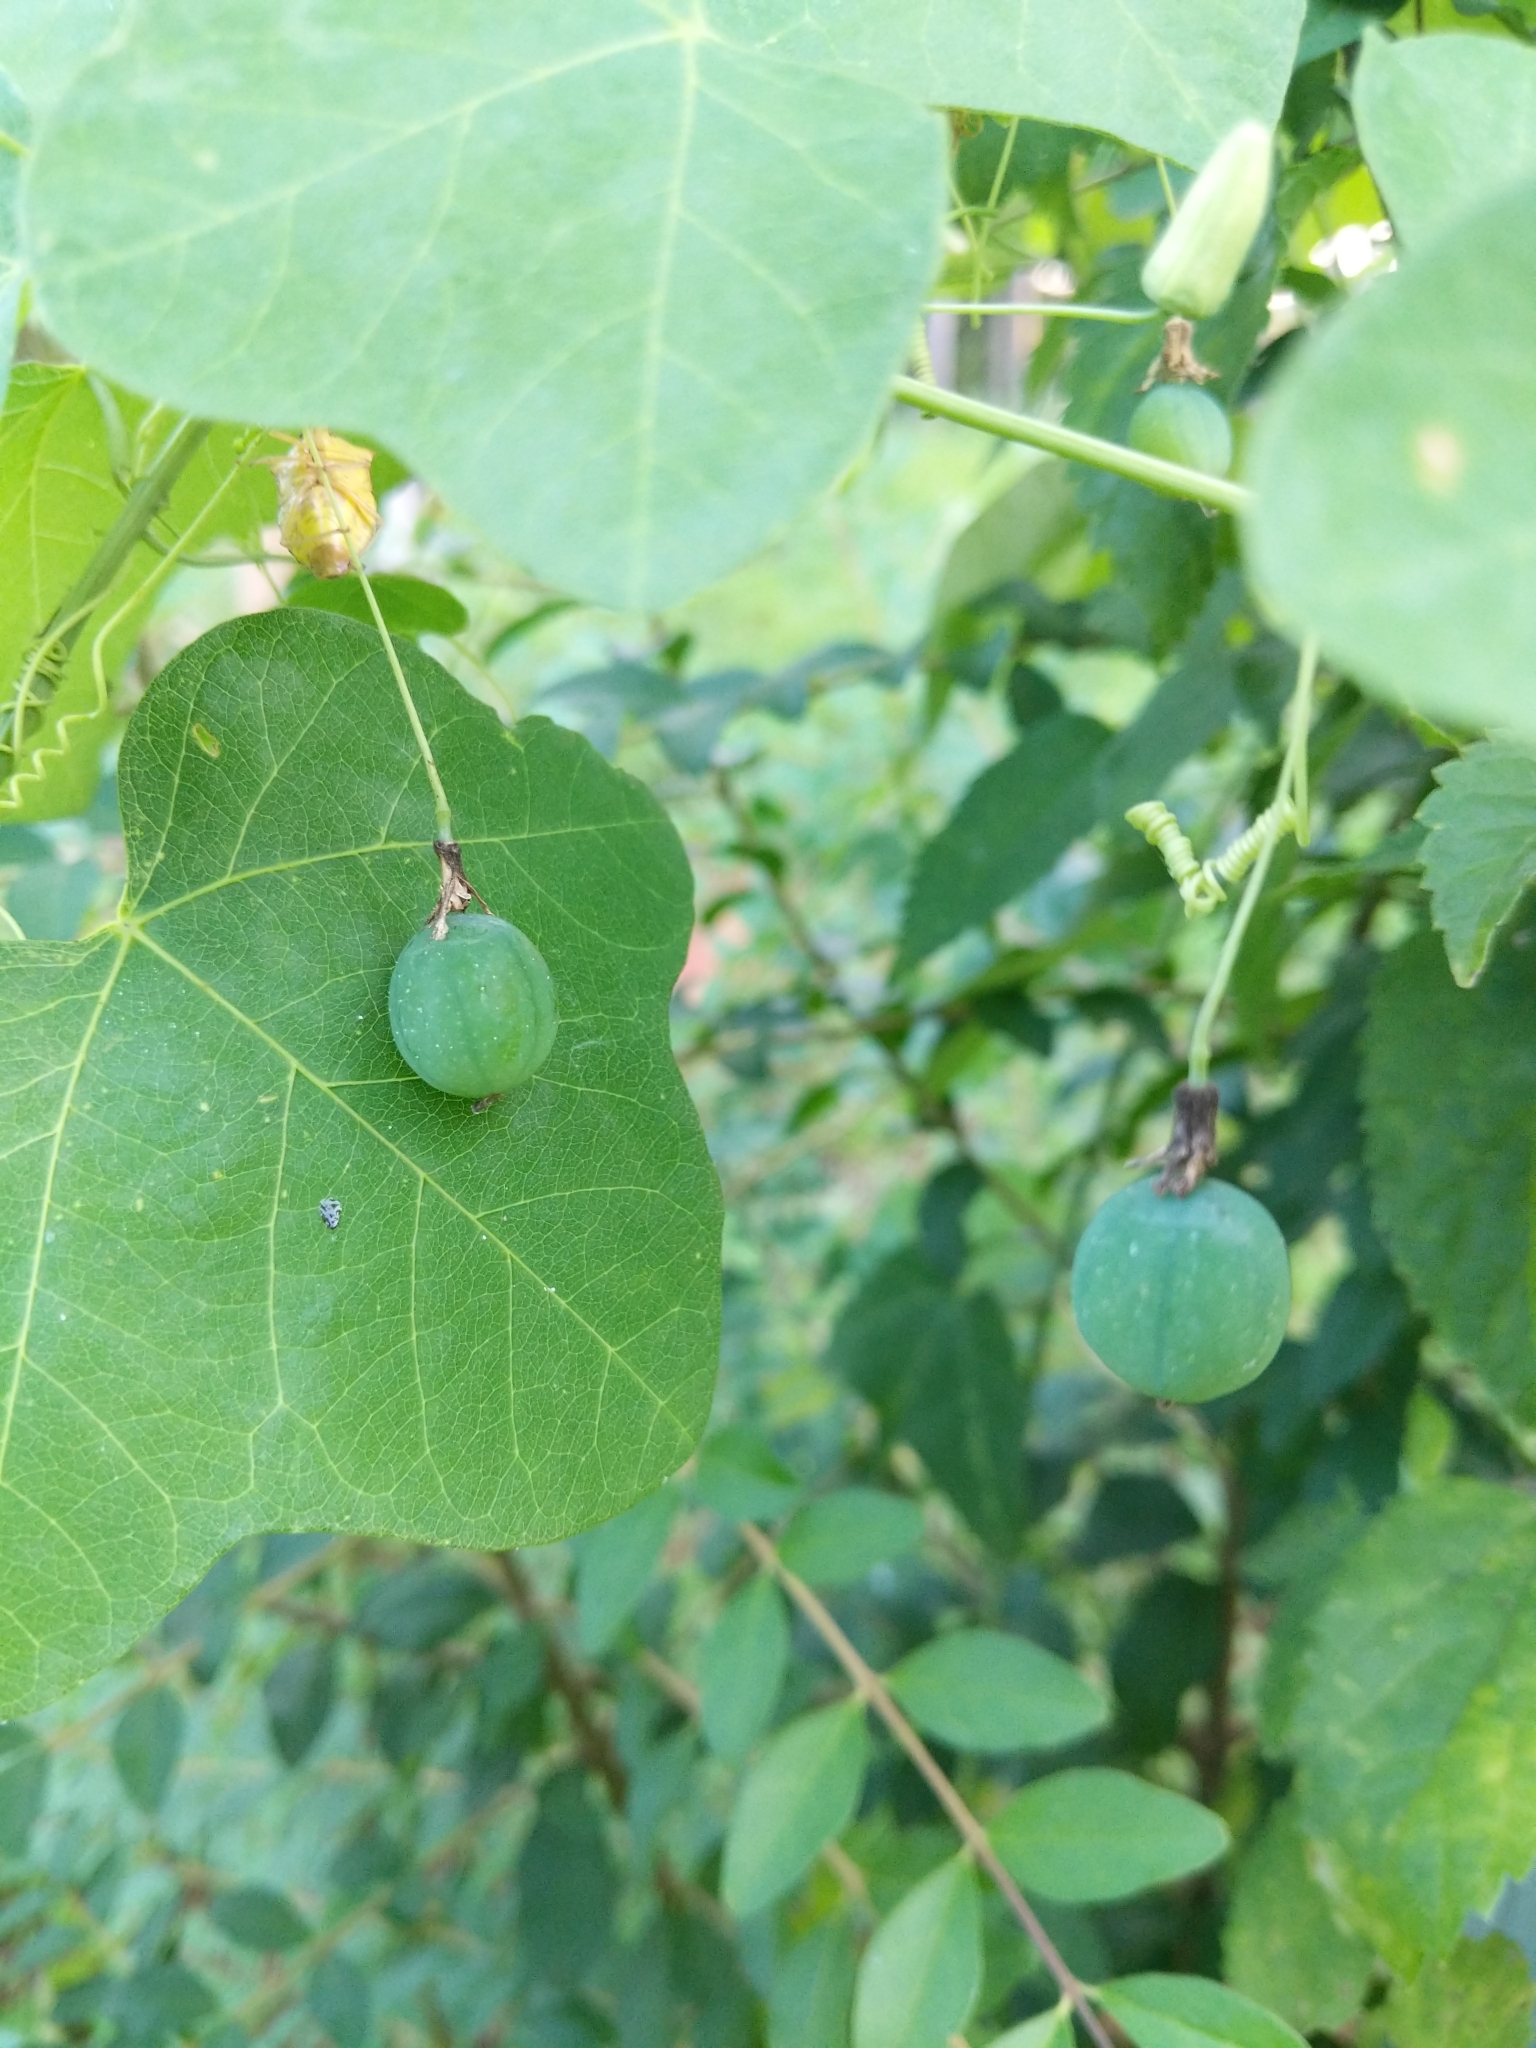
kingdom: Plantae
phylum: Tracheophyta
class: Magnoliopsida
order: Malpighiales
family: Passifloraceae
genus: Passiflora
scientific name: Passiflora lutea
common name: Yellow passionflower
